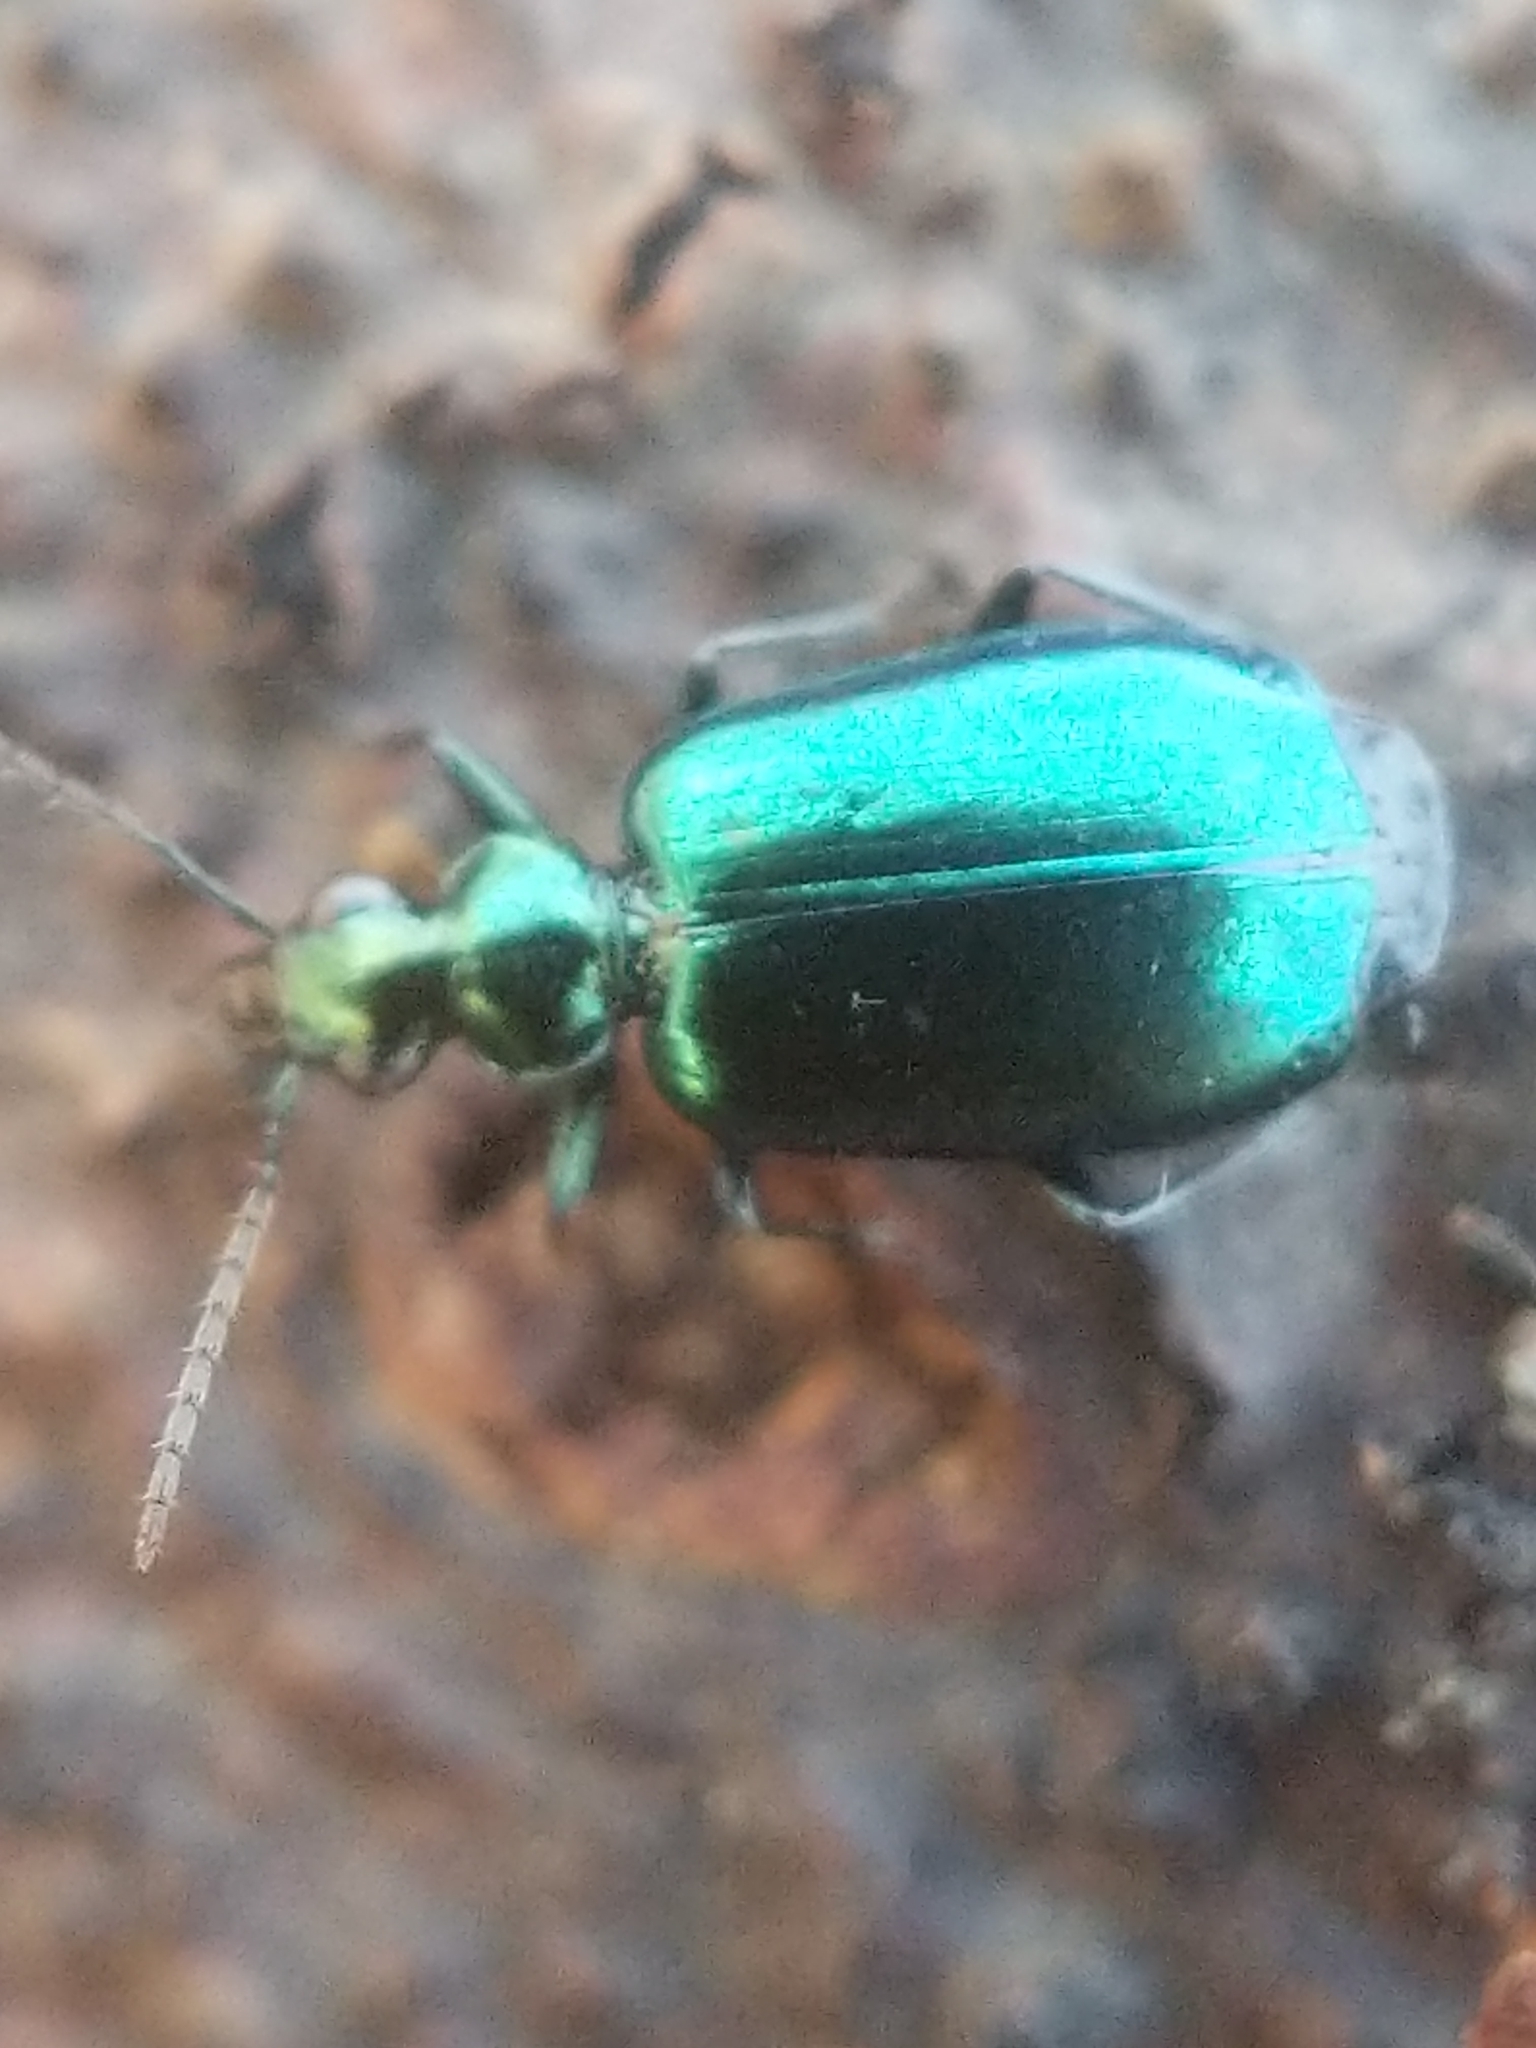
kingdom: Animalia
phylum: Arthropoda
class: Insecta
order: Coleoptera
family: Carabidae
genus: Lebia
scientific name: Lebia viridis
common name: Flower lebia beetle
